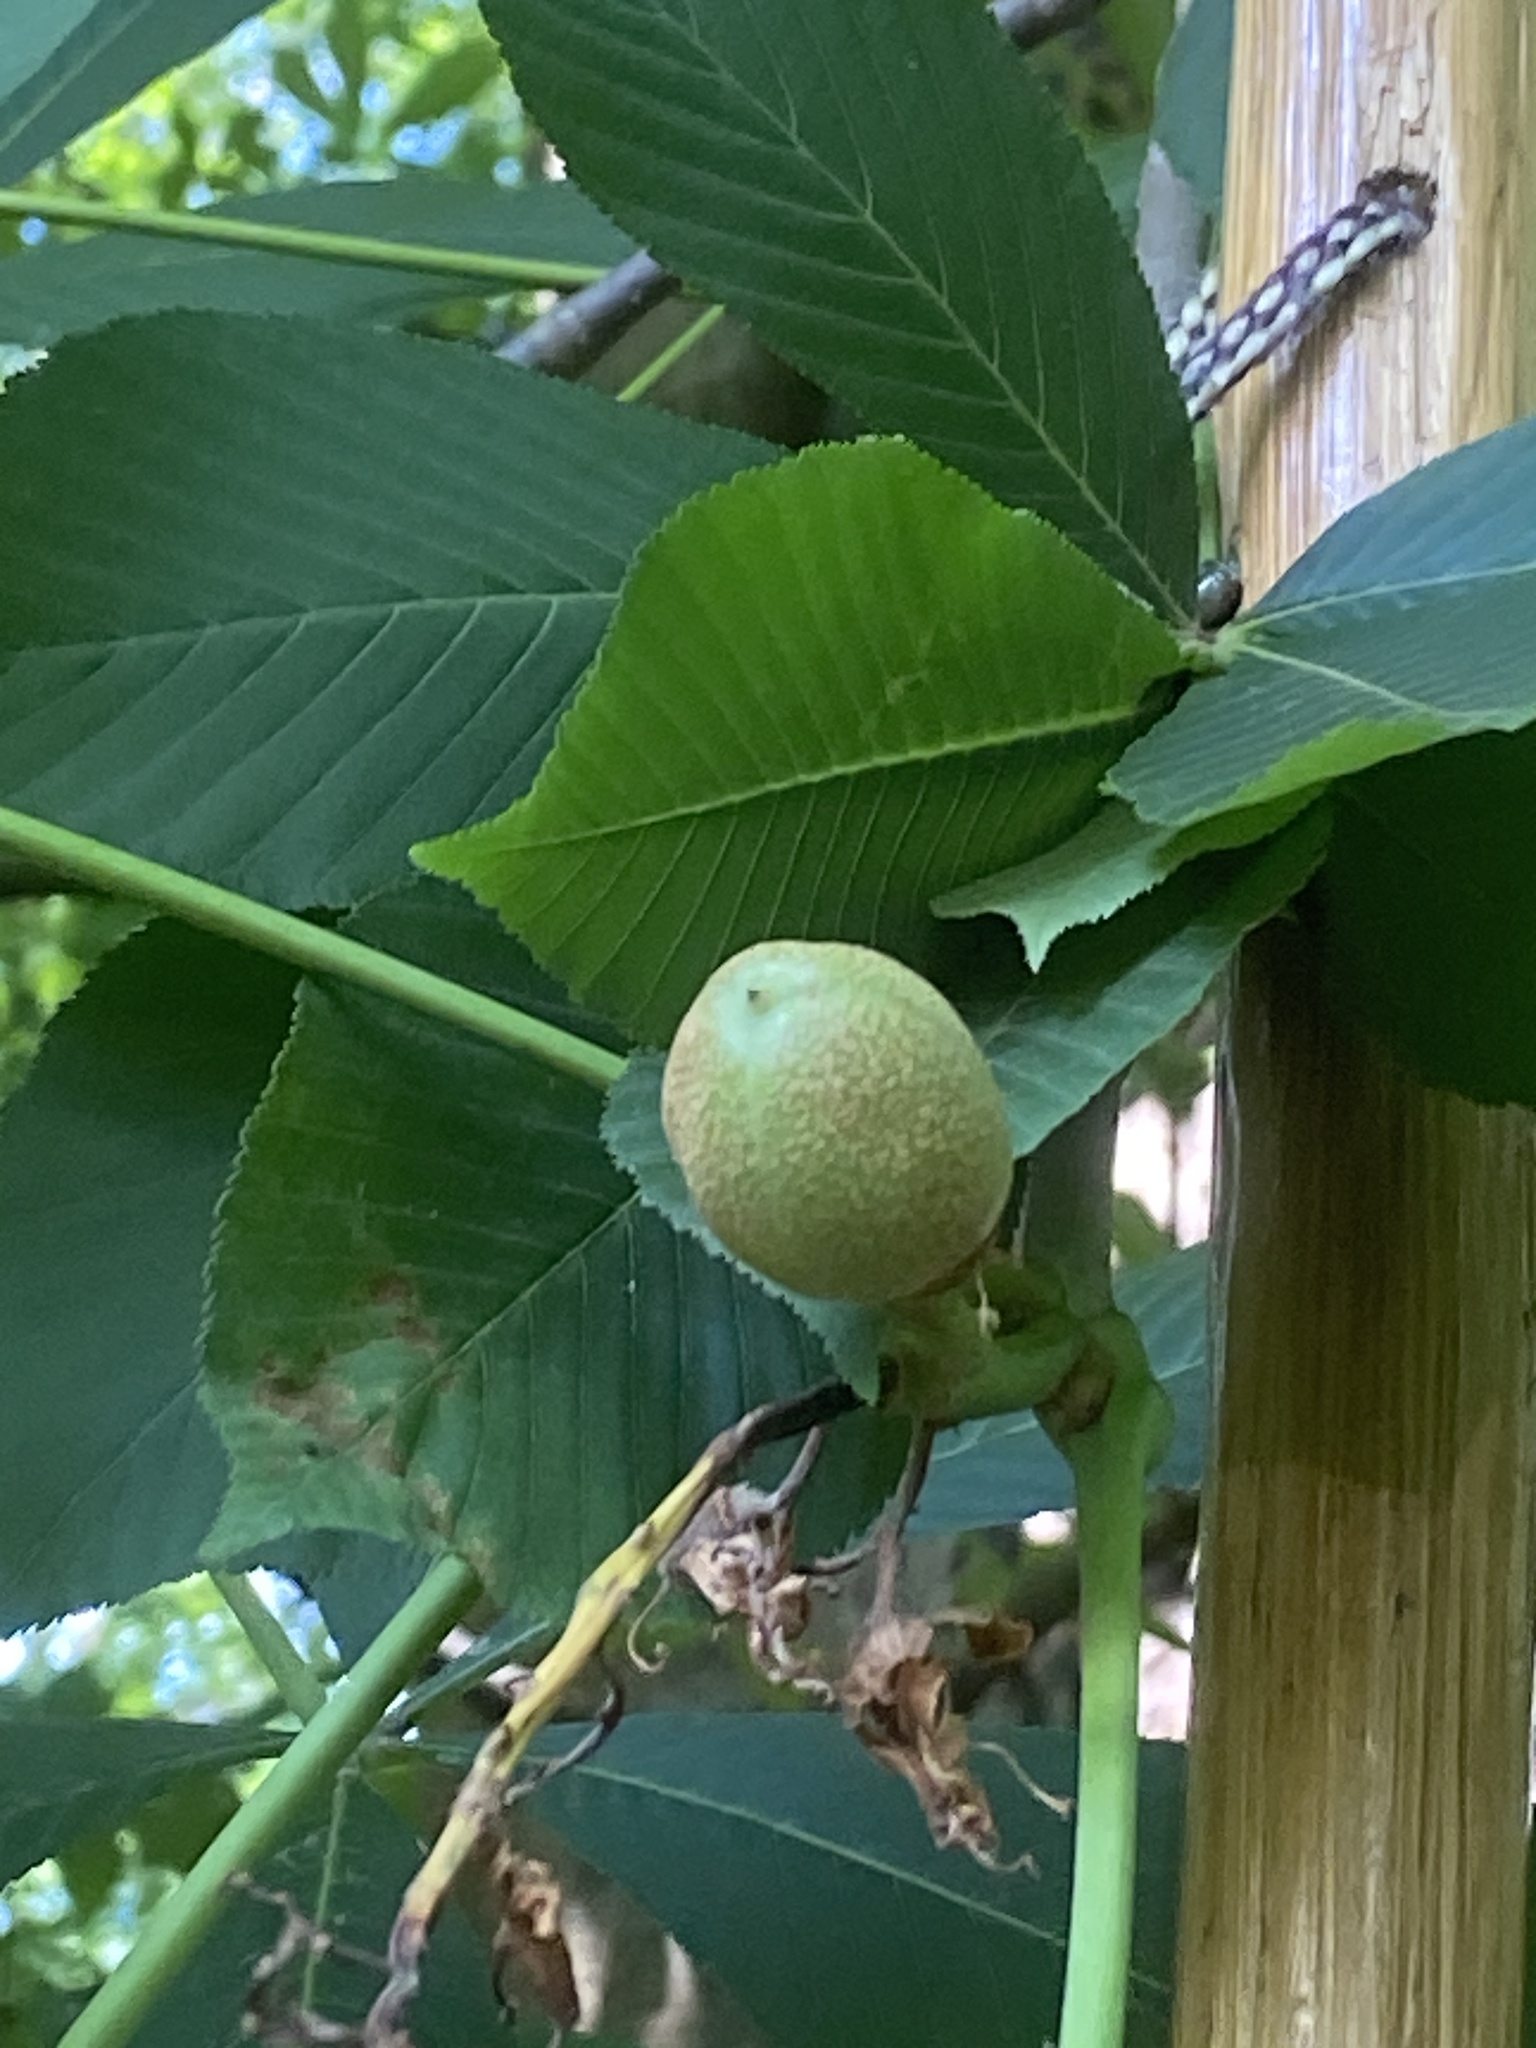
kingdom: Plantae
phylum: Tracheophyta
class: Magnoliopsida
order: Sapindales
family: Sapindaceae
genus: Aesculus
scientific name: Aesculus flava
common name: Yellow buckeye
